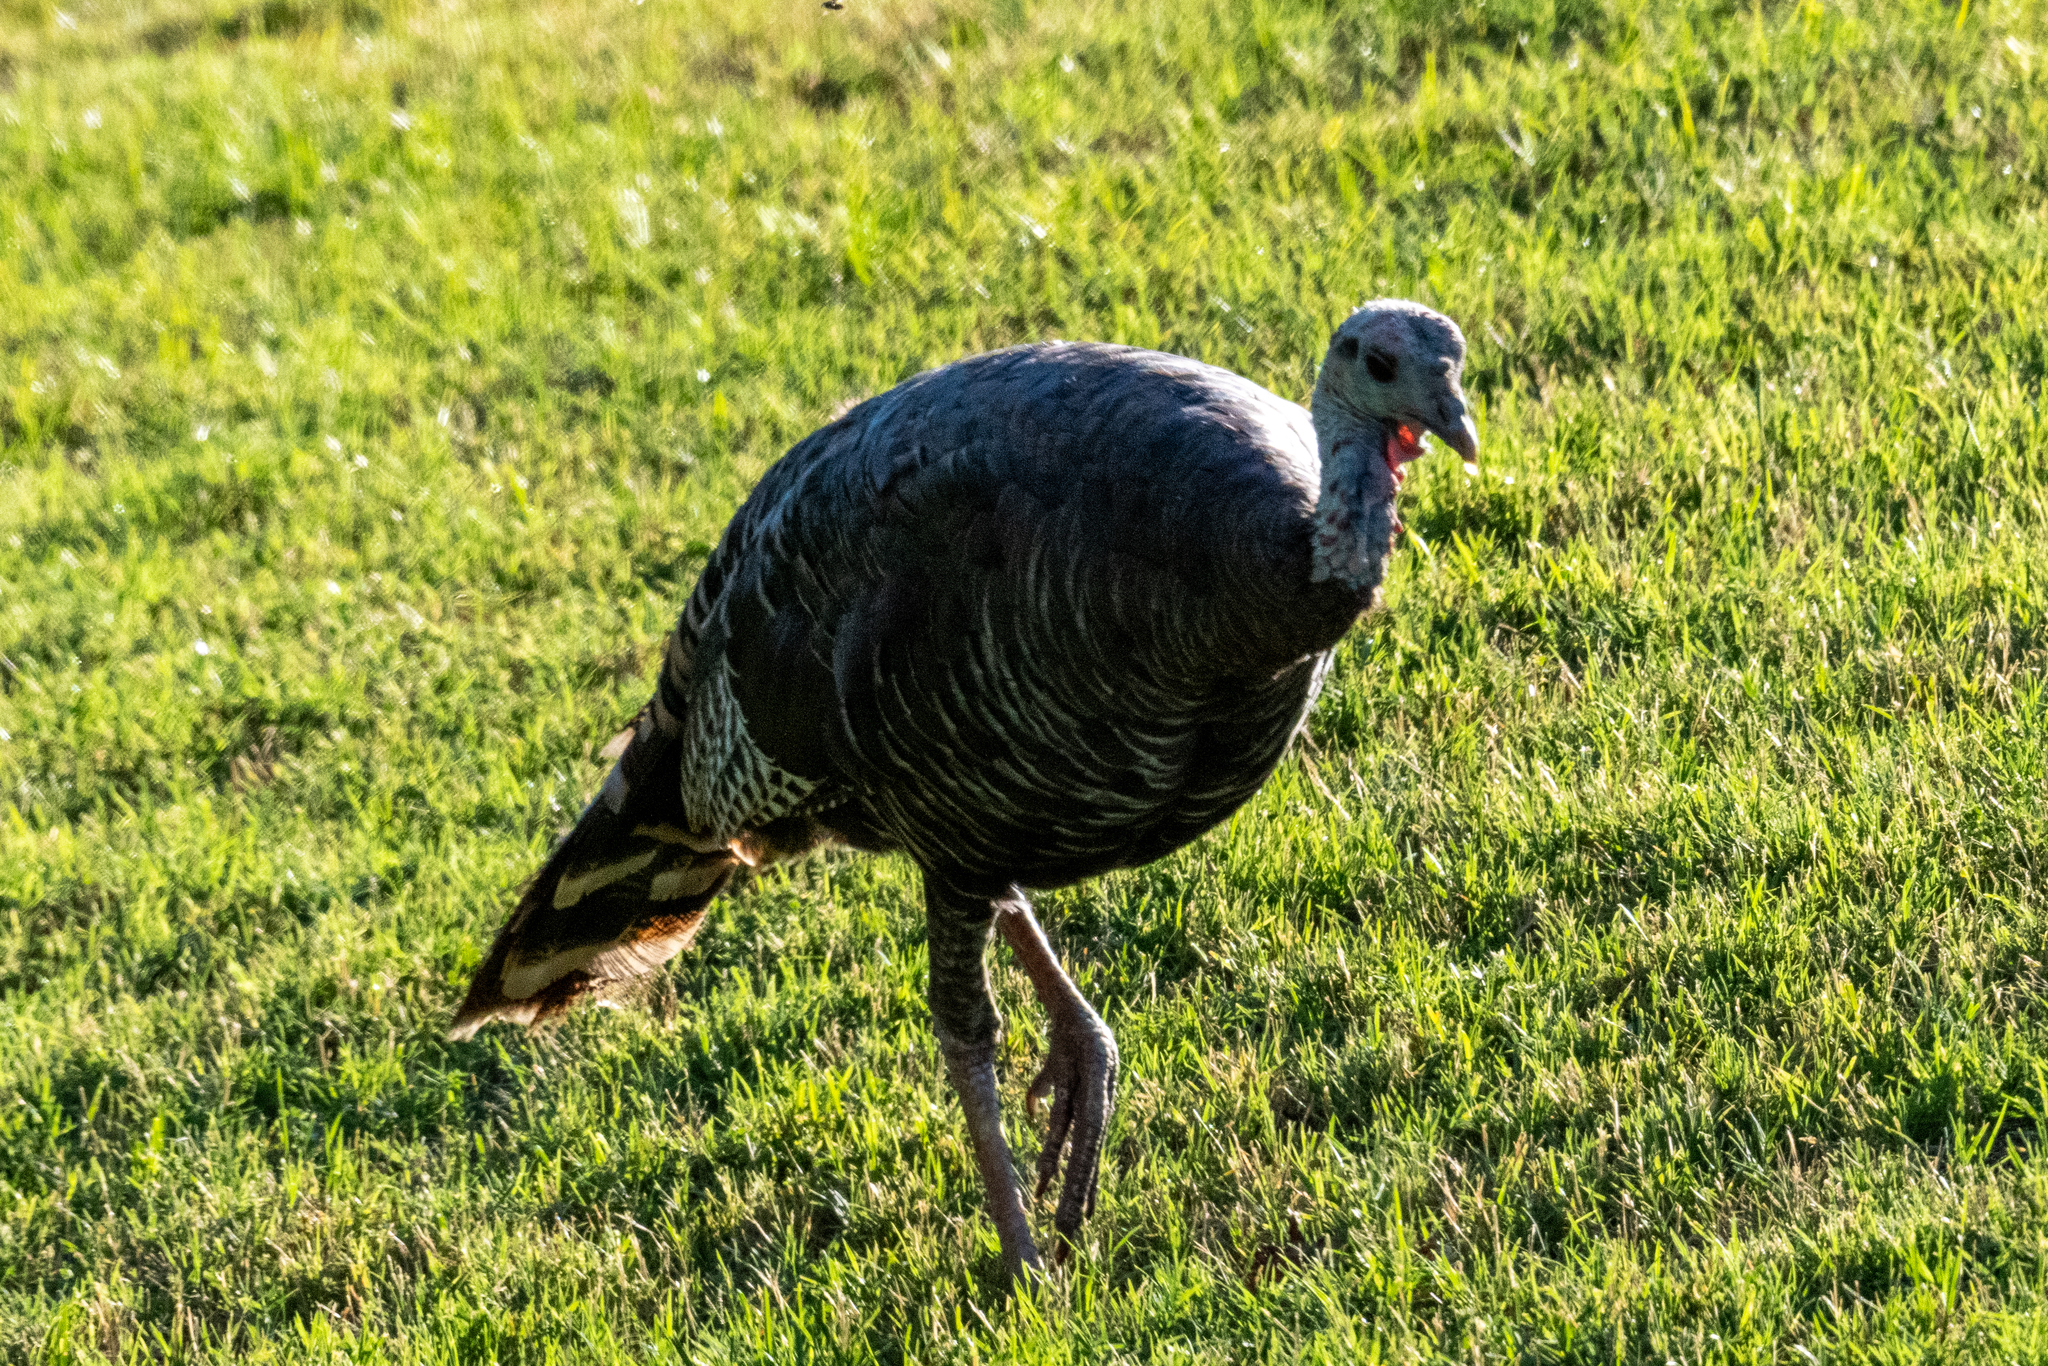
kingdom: Animalia
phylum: Chordata
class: Aves
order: Galliformes
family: Phasianidae
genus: Meleagris
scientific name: Meleagris gallopavo
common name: Wild turkey
